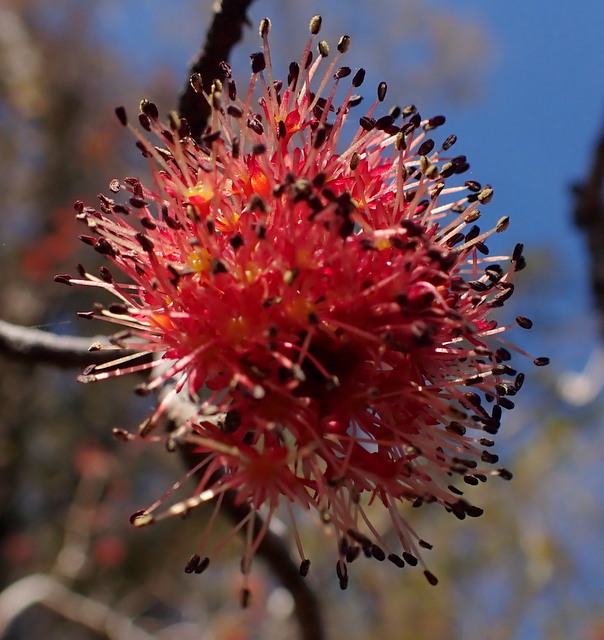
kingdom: Plantae
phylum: Tracheophyta
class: Magnoliopsida
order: Sapindales
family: Sapindaceae
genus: Acer
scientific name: Acer rubrum
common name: Red maple
